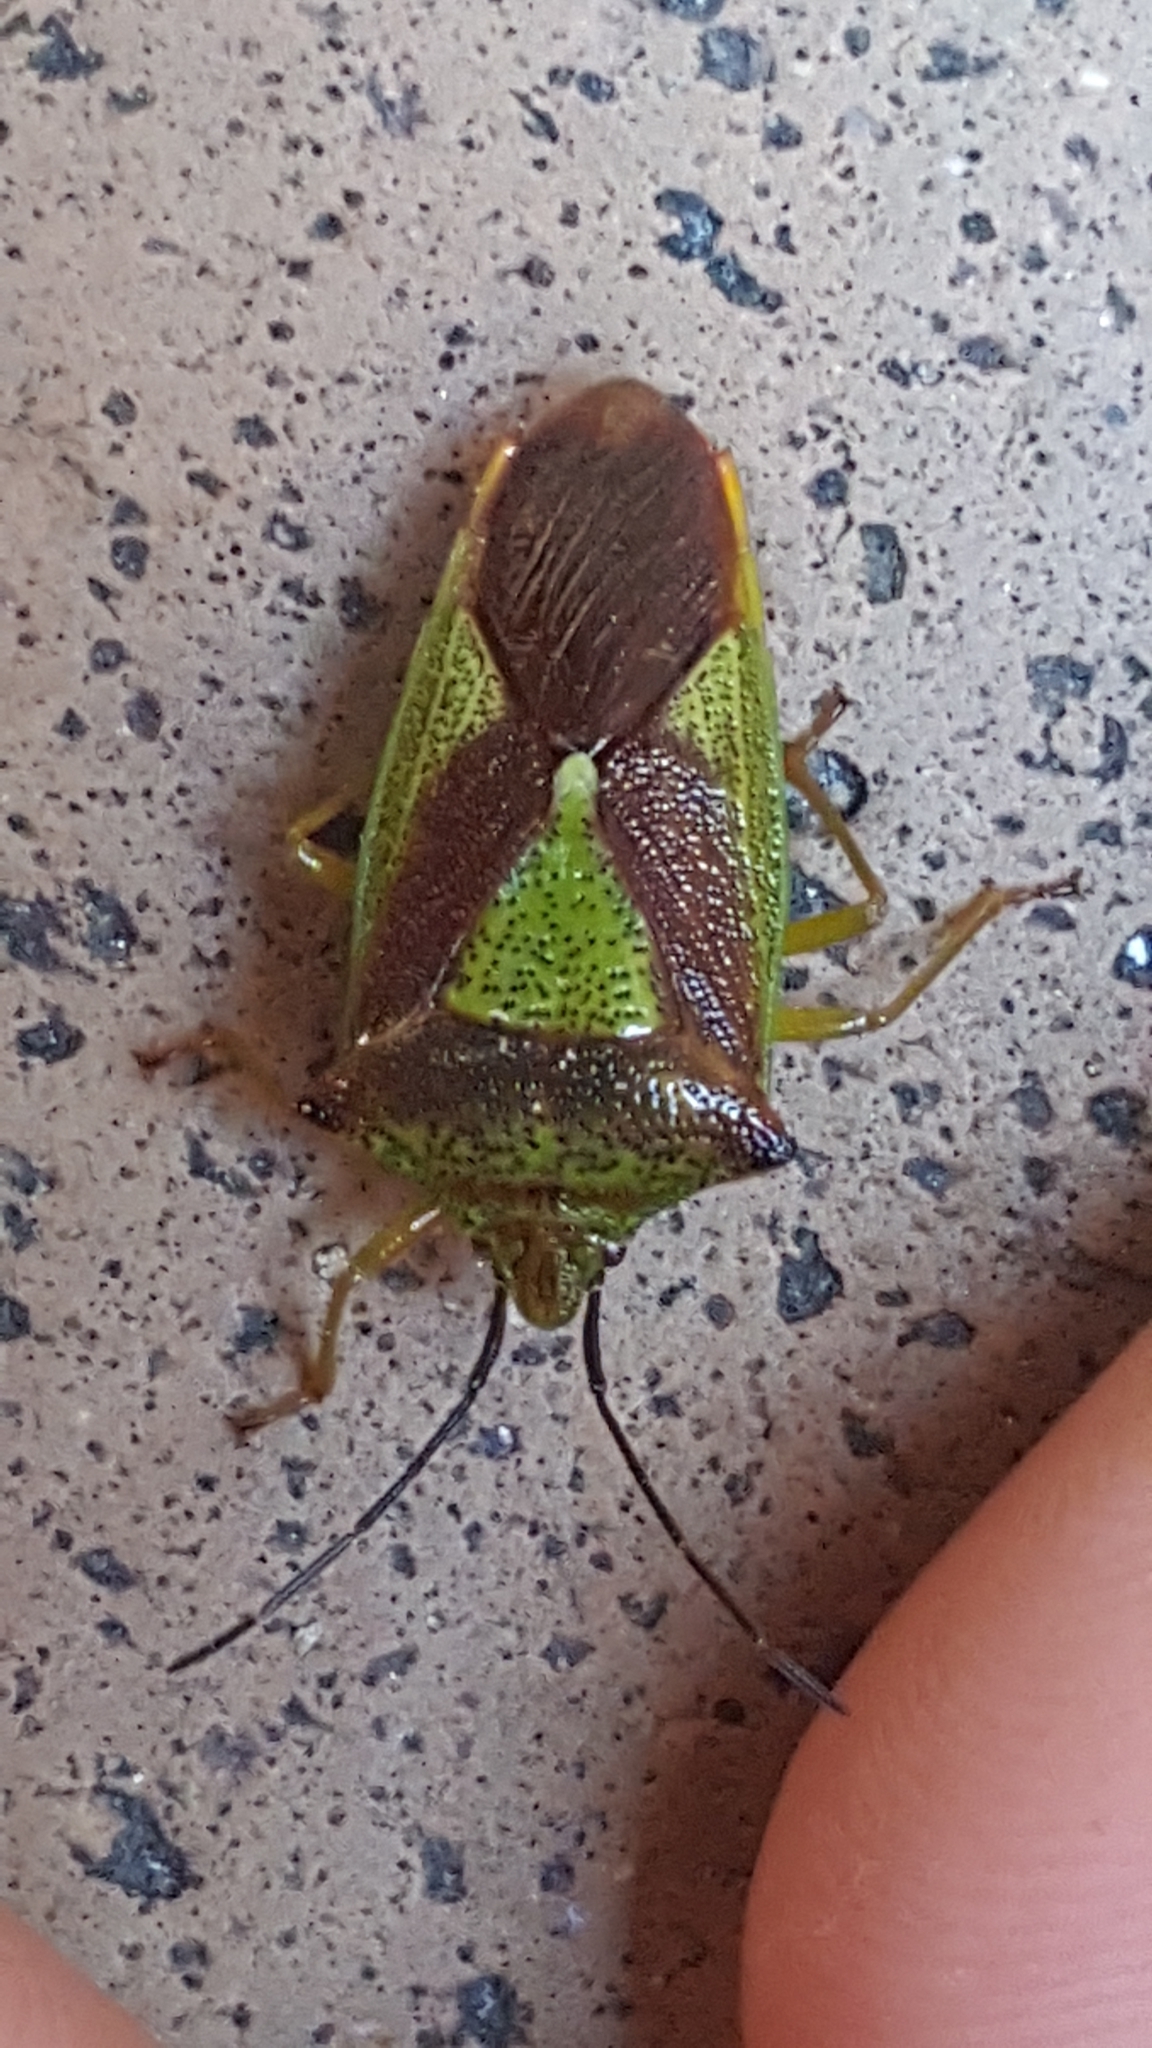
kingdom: Animalia
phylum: Arthropoda
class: Insecta
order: Hemiptera
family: Acanthosomatidae
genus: Acanthosoma
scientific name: Acanthosoma haemorrhoidale
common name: Hawthorn shieldbug
